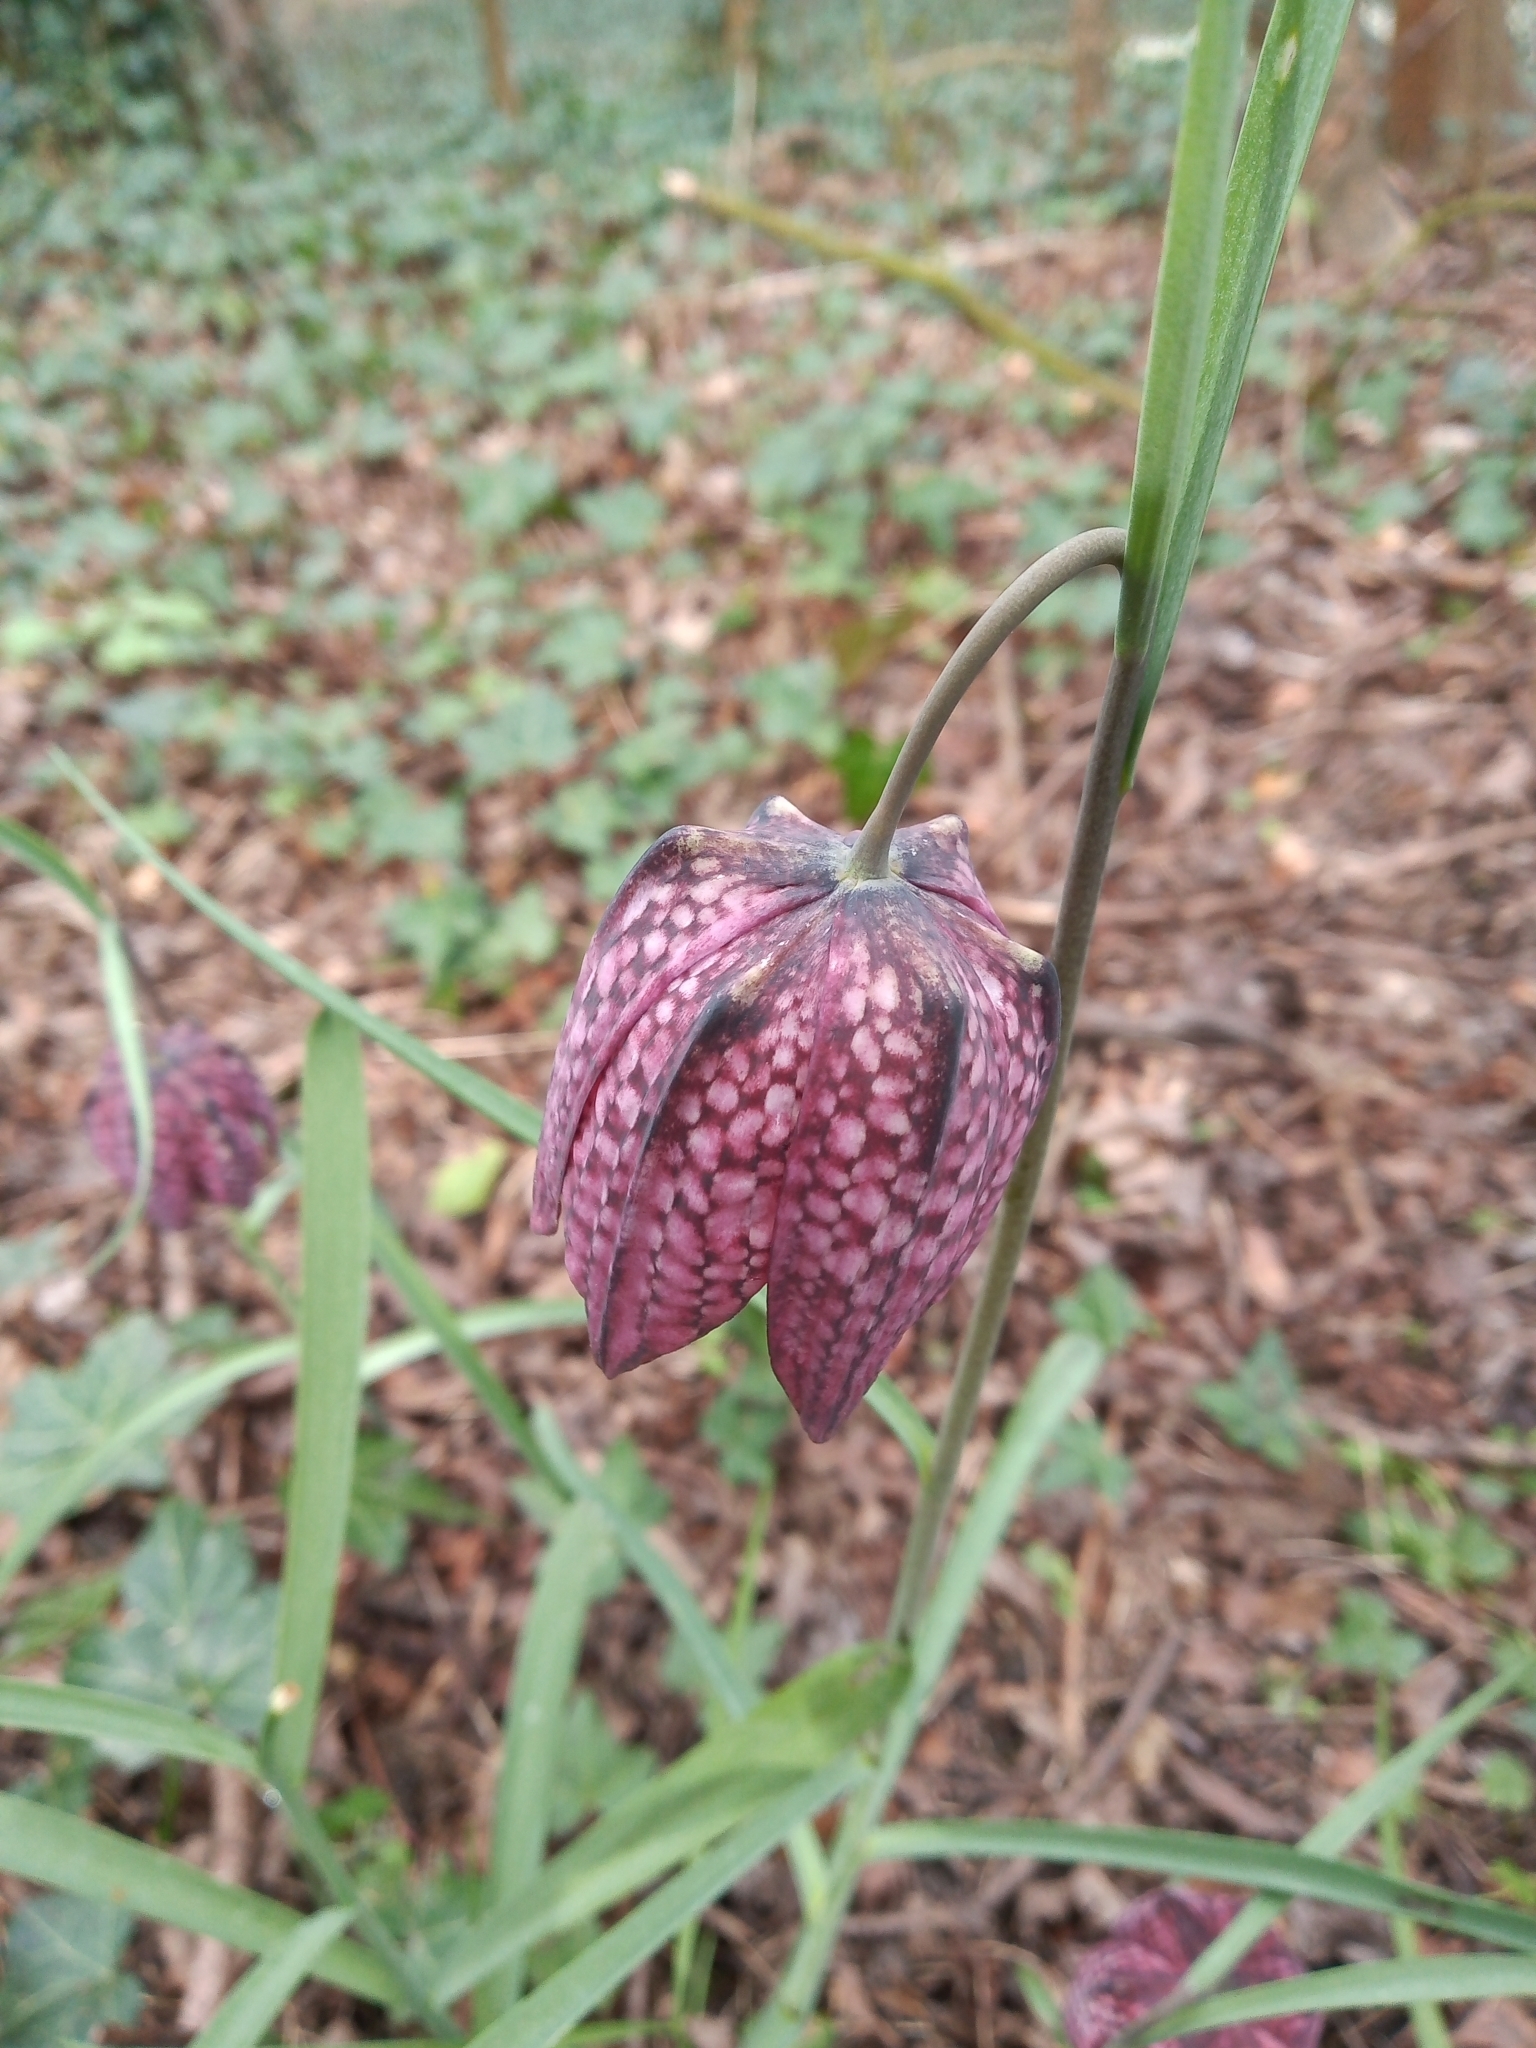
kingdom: Plantae
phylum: Tracheophyta
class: Liliopsida
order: Liliales
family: Liliaceae
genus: Fritillaria
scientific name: Fritillaria meleagris
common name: Fritillary
